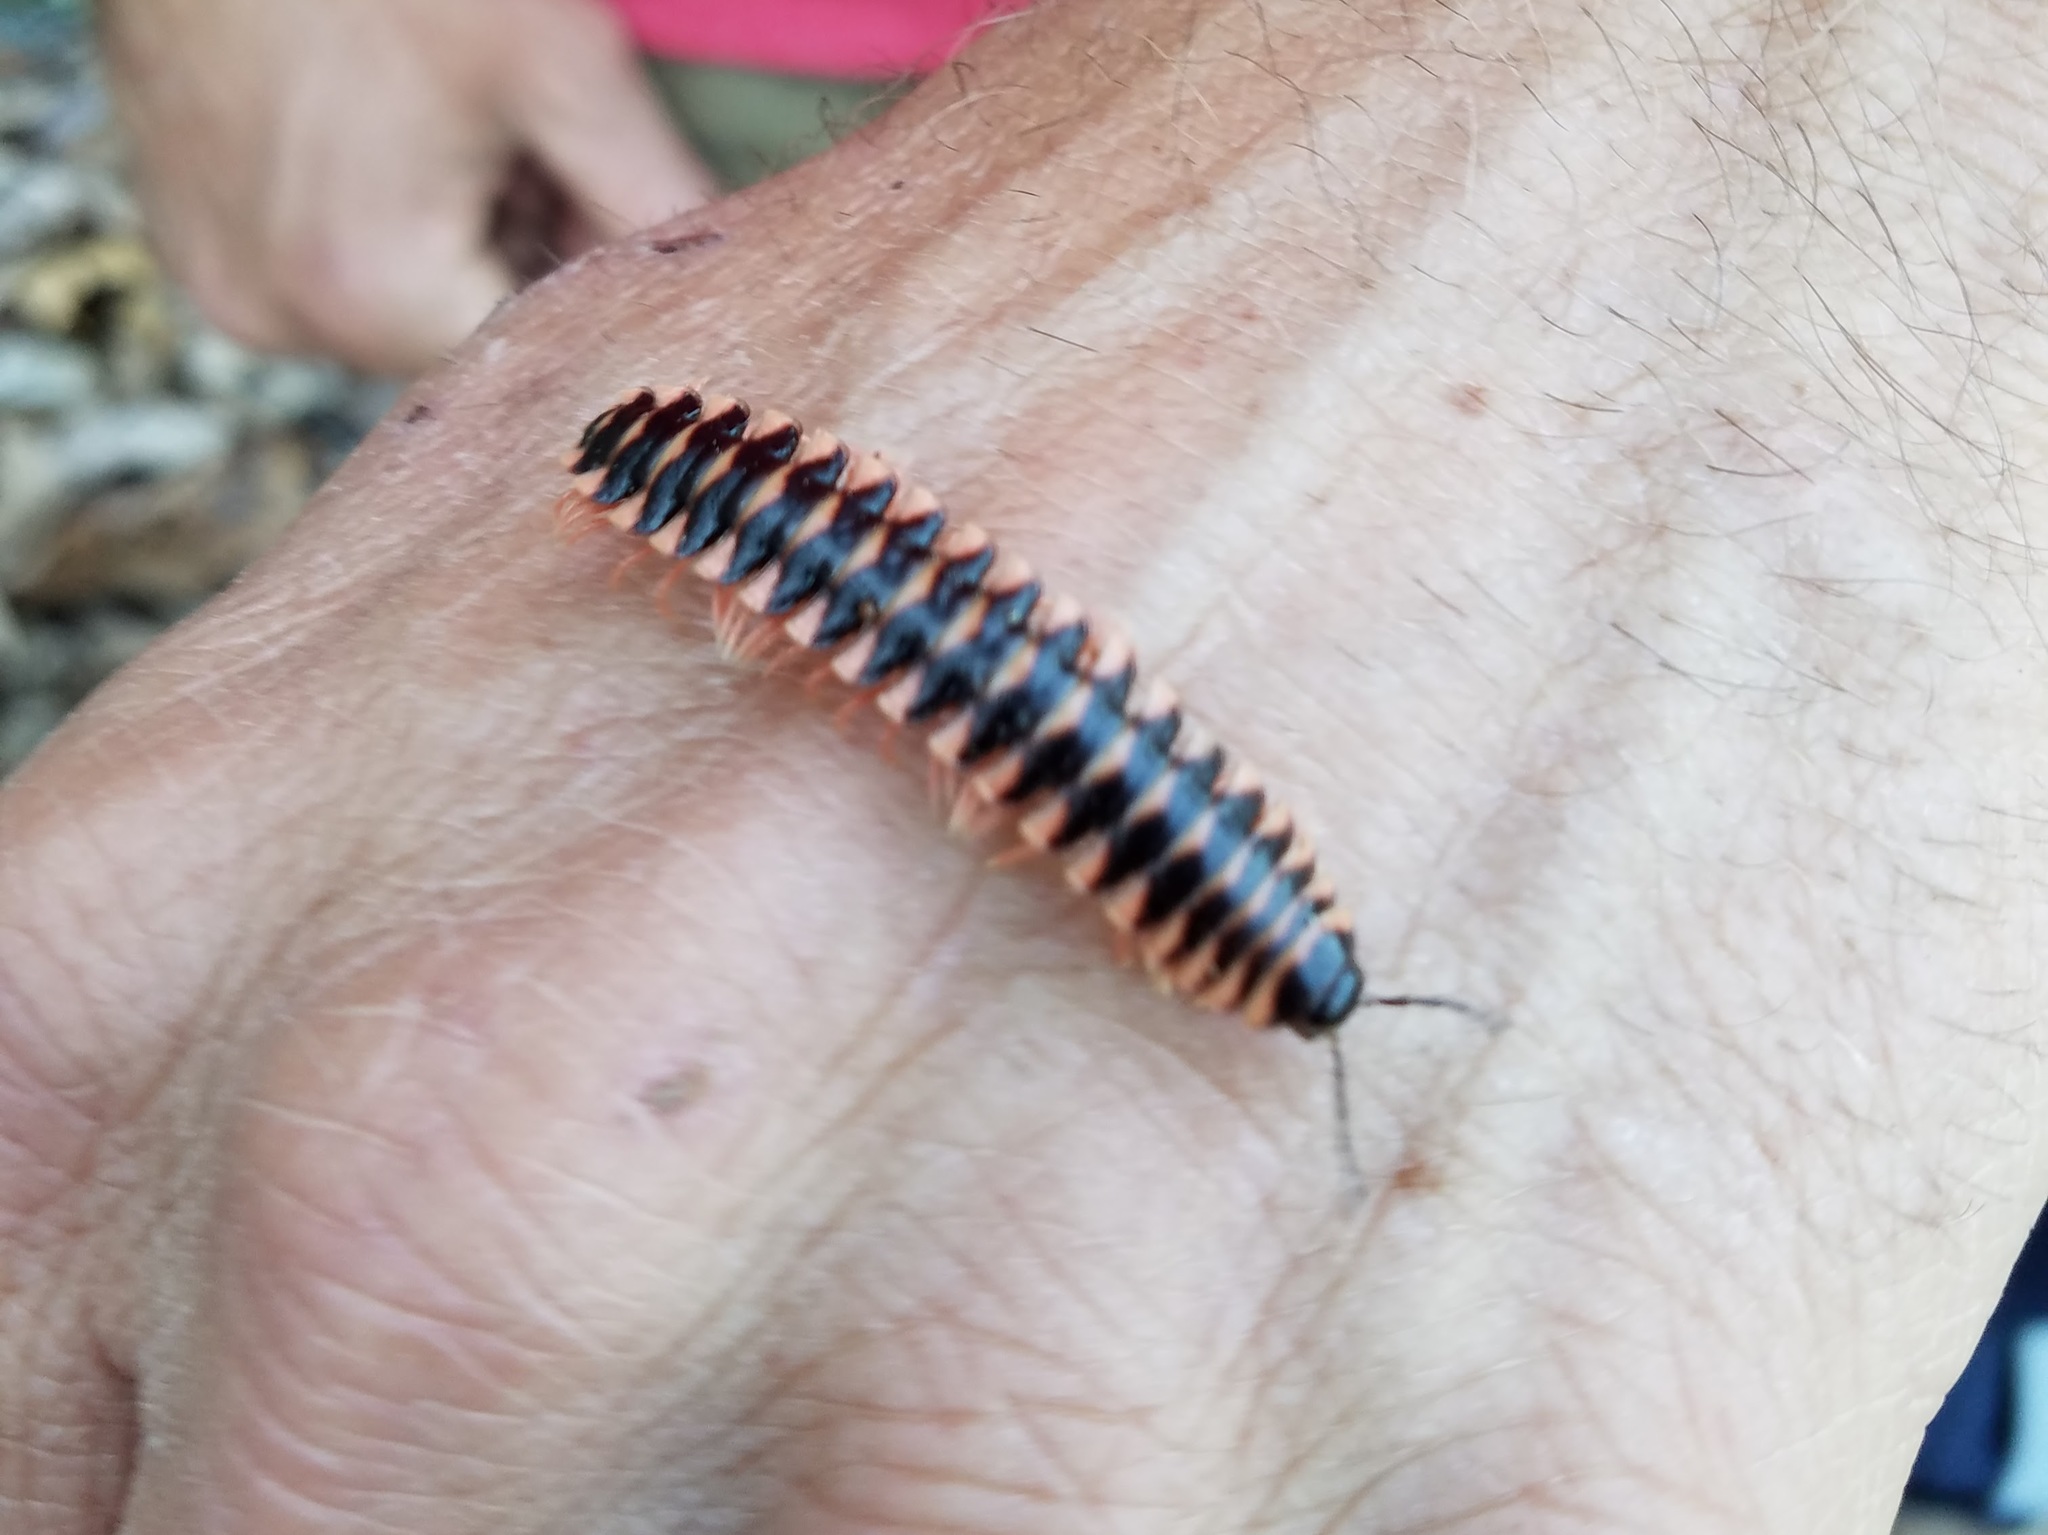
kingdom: Animalia
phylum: Arthropoda
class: Diplopoda
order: Polydesmida
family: Xystodesmidae
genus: Cherokia
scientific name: Cherokia georgiana
